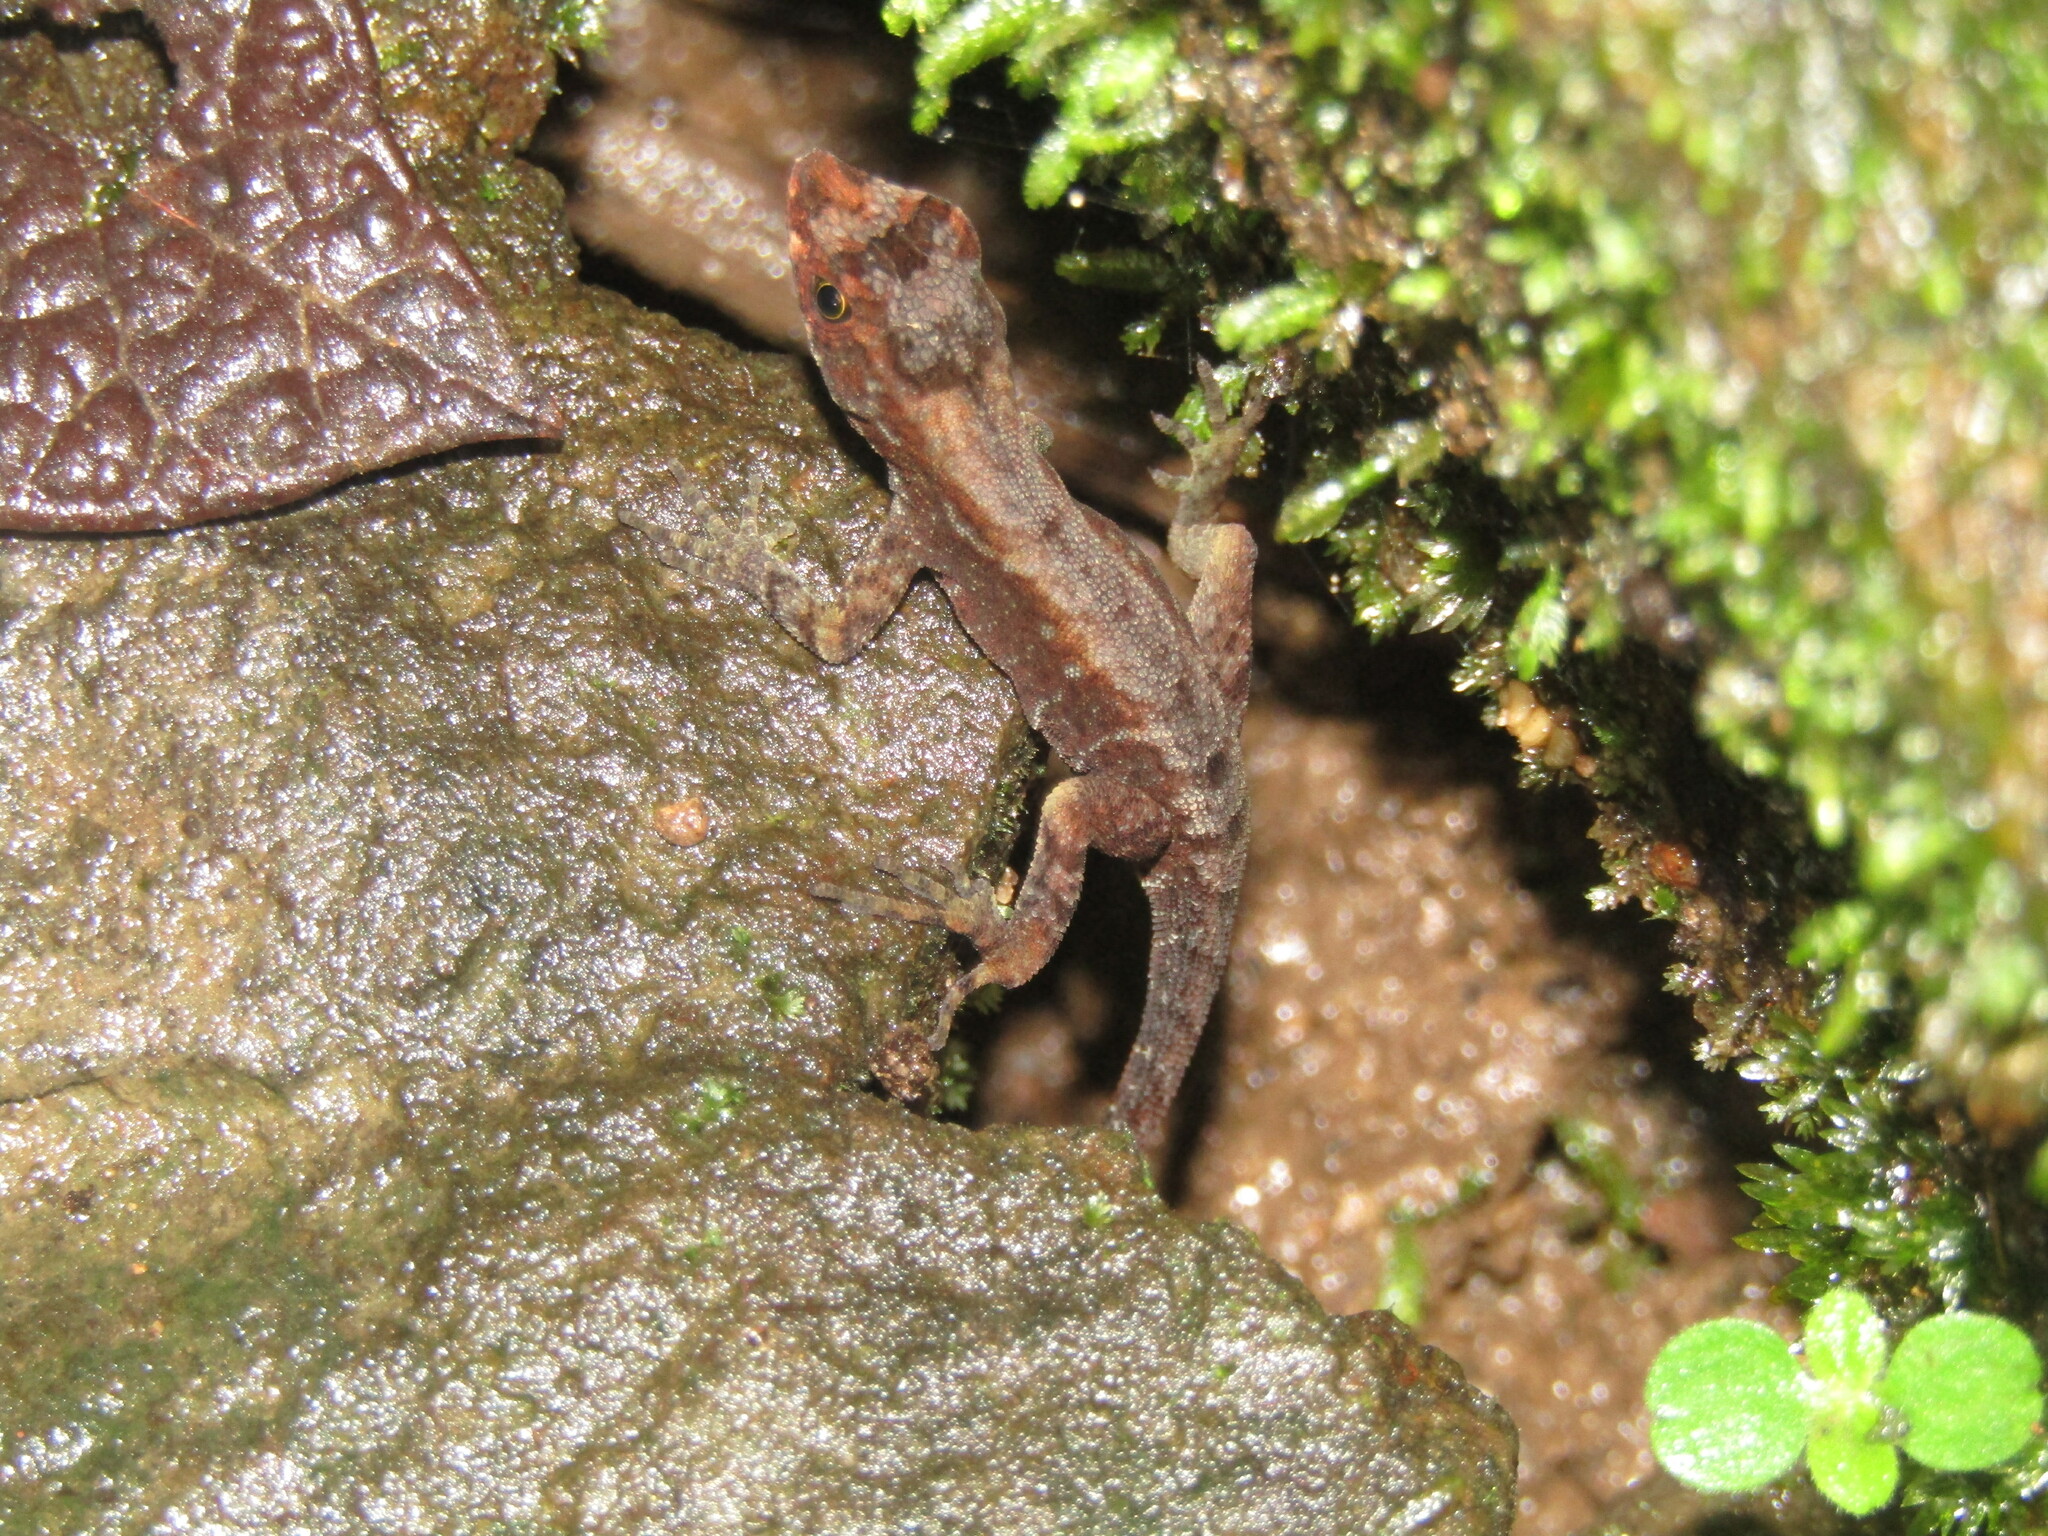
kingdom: Animalia
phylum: Chordata
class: Squamata
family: Dactyloidae
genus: Anolis
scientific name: Anolis humilis
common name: Humble anole
